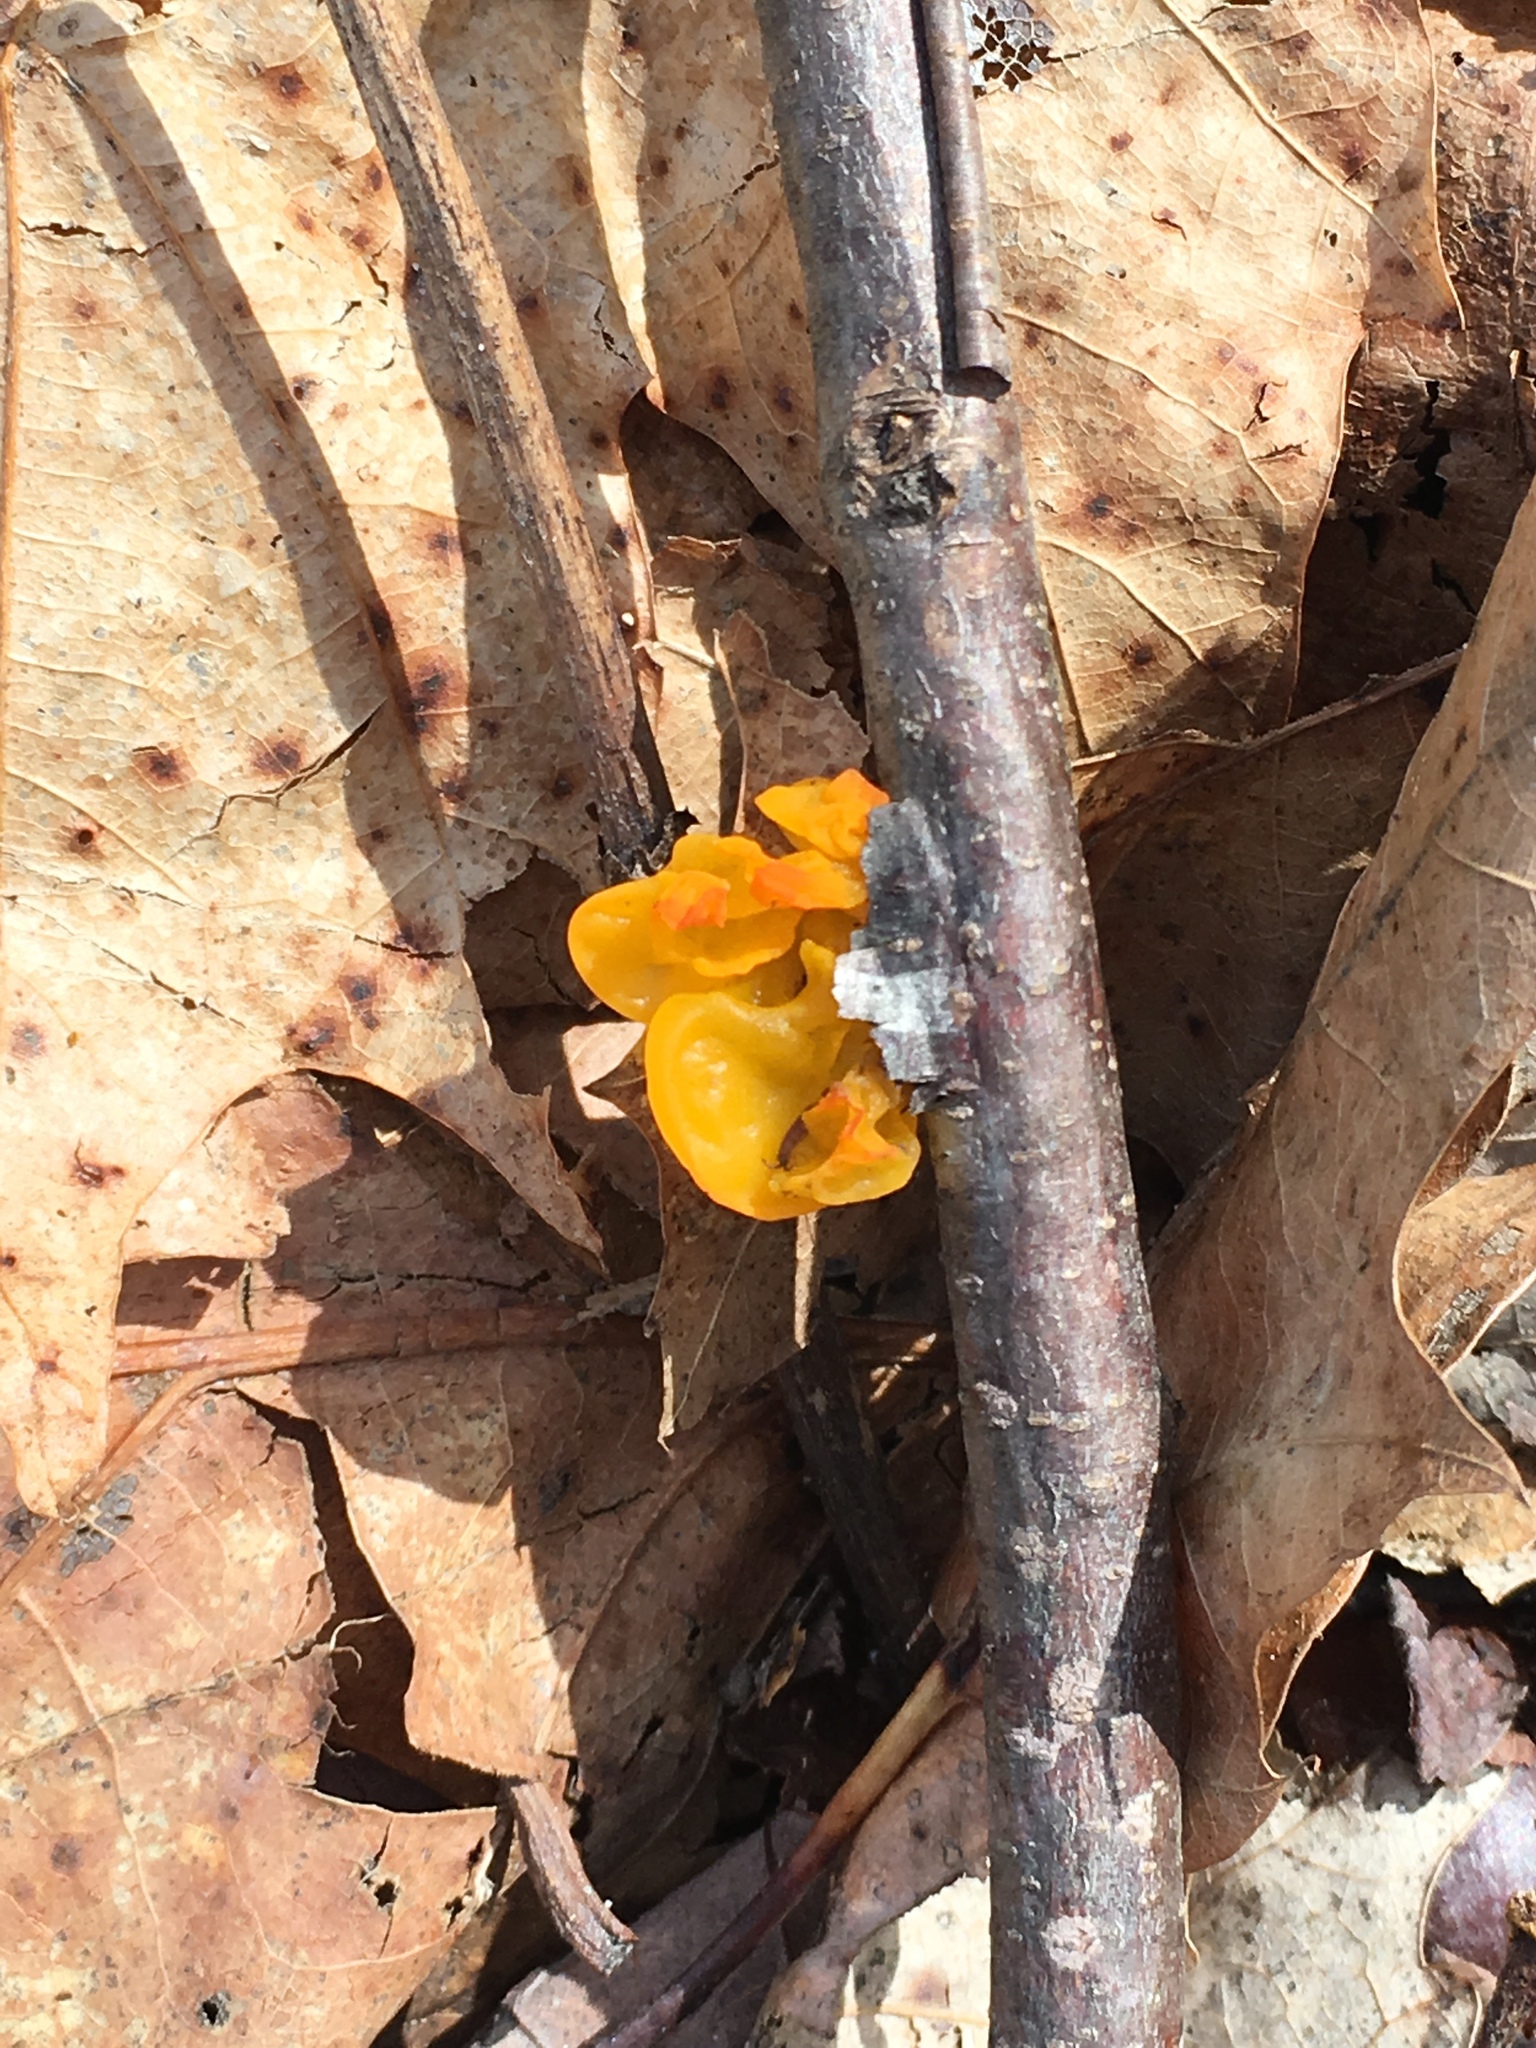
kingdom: Fungi
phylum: Basidiomycota
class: Tremellomycetes
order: Tremellales
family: Tremellaceae
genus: Tremella
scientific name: Tremella mesenterica
